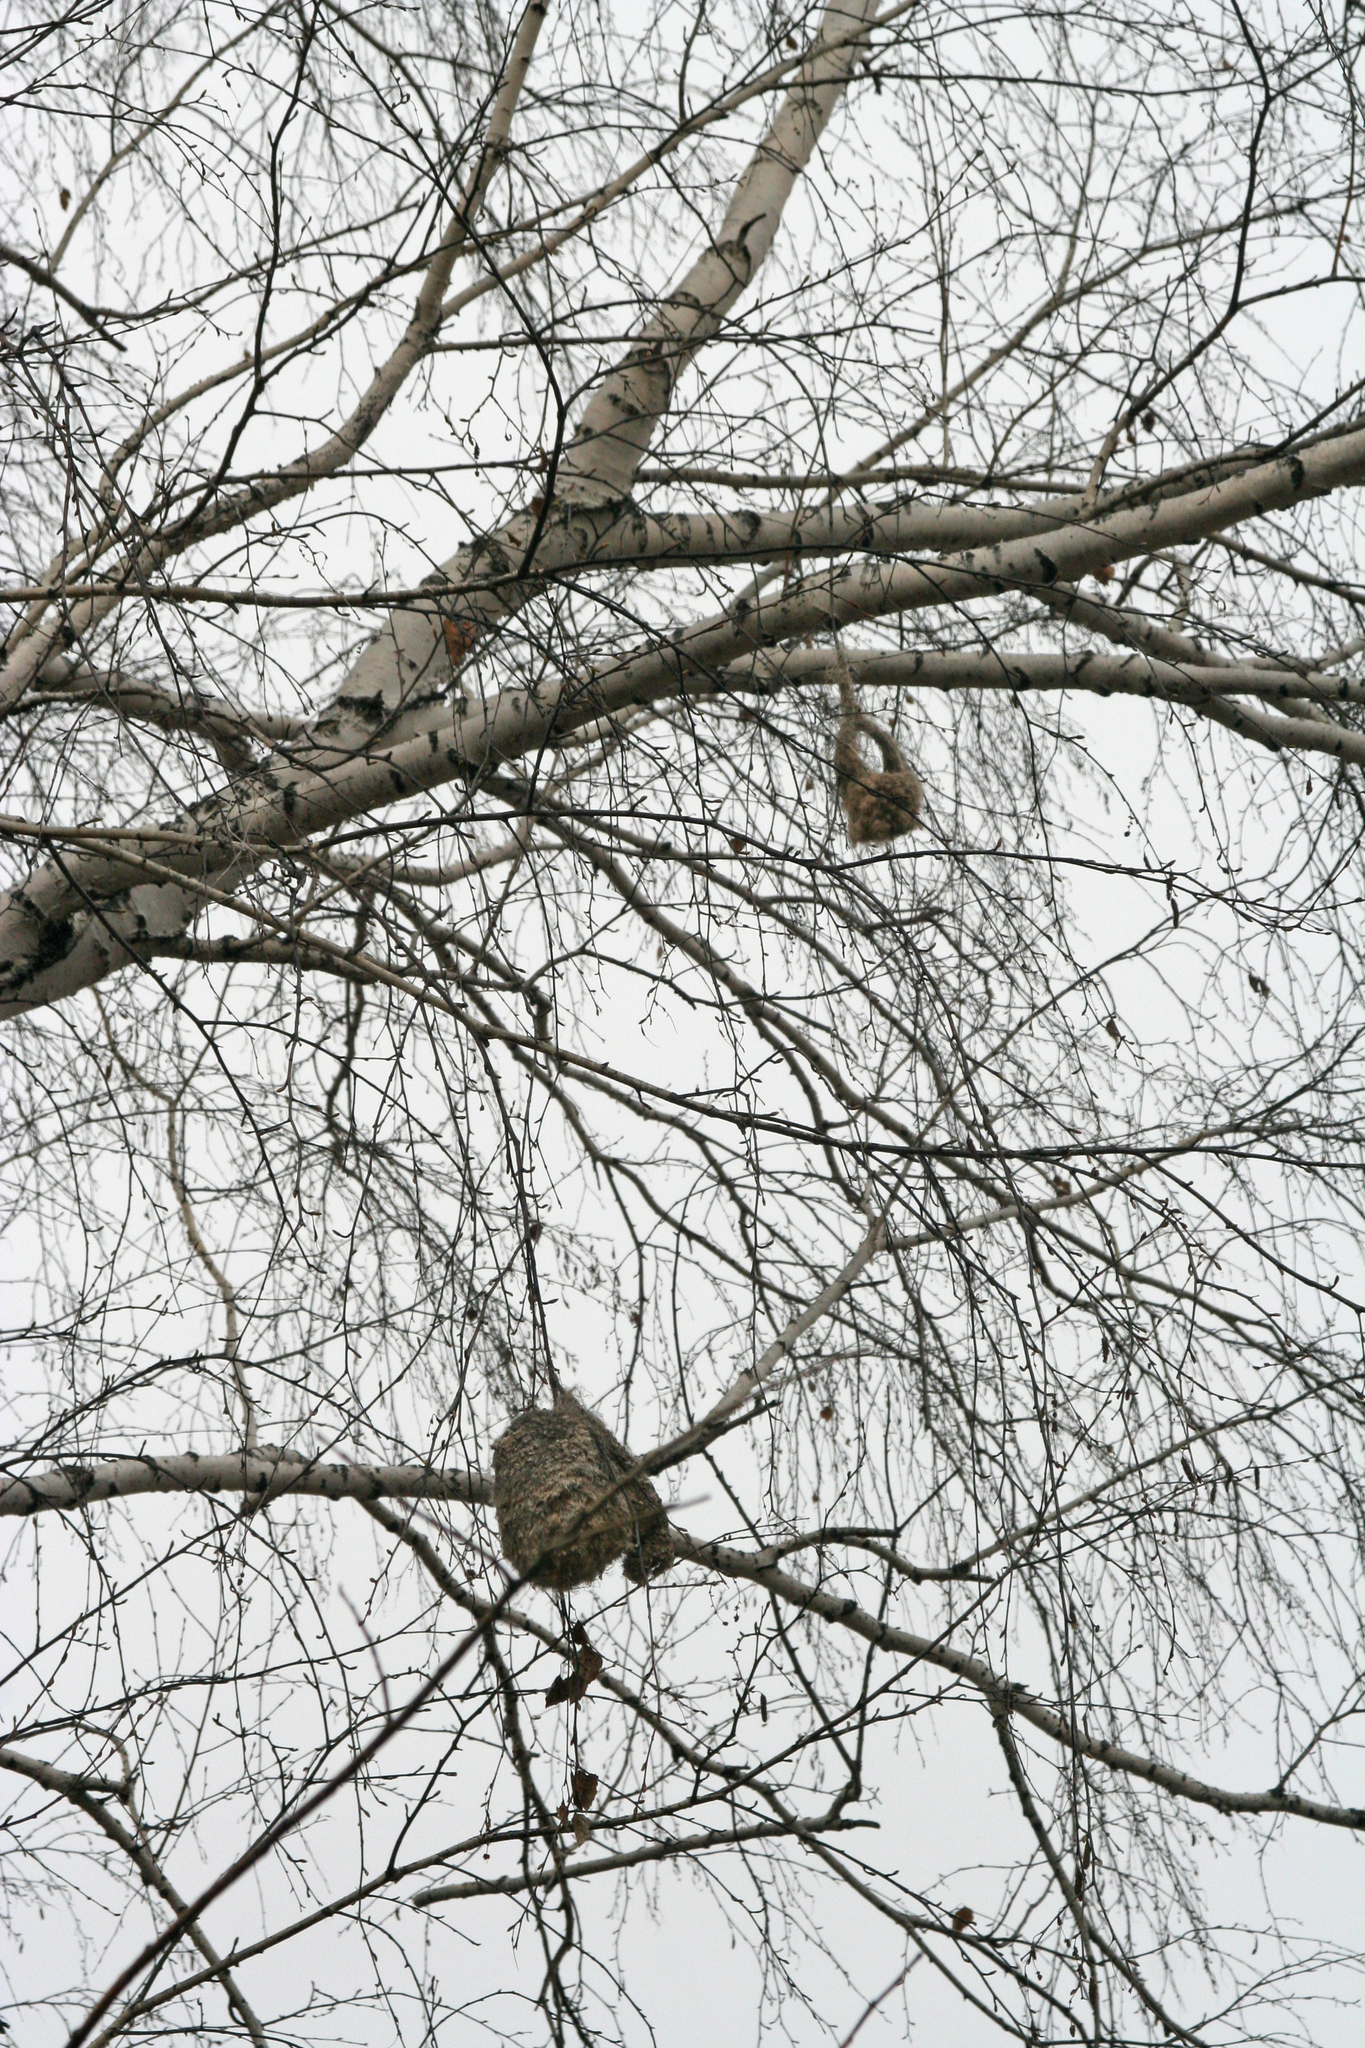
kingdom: Animalia
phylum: Chordata
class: Aves
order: Passeriformes
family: Remizidae
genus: Remiz
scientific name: Remiz pendulinus
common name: Eurasian penduline tit
